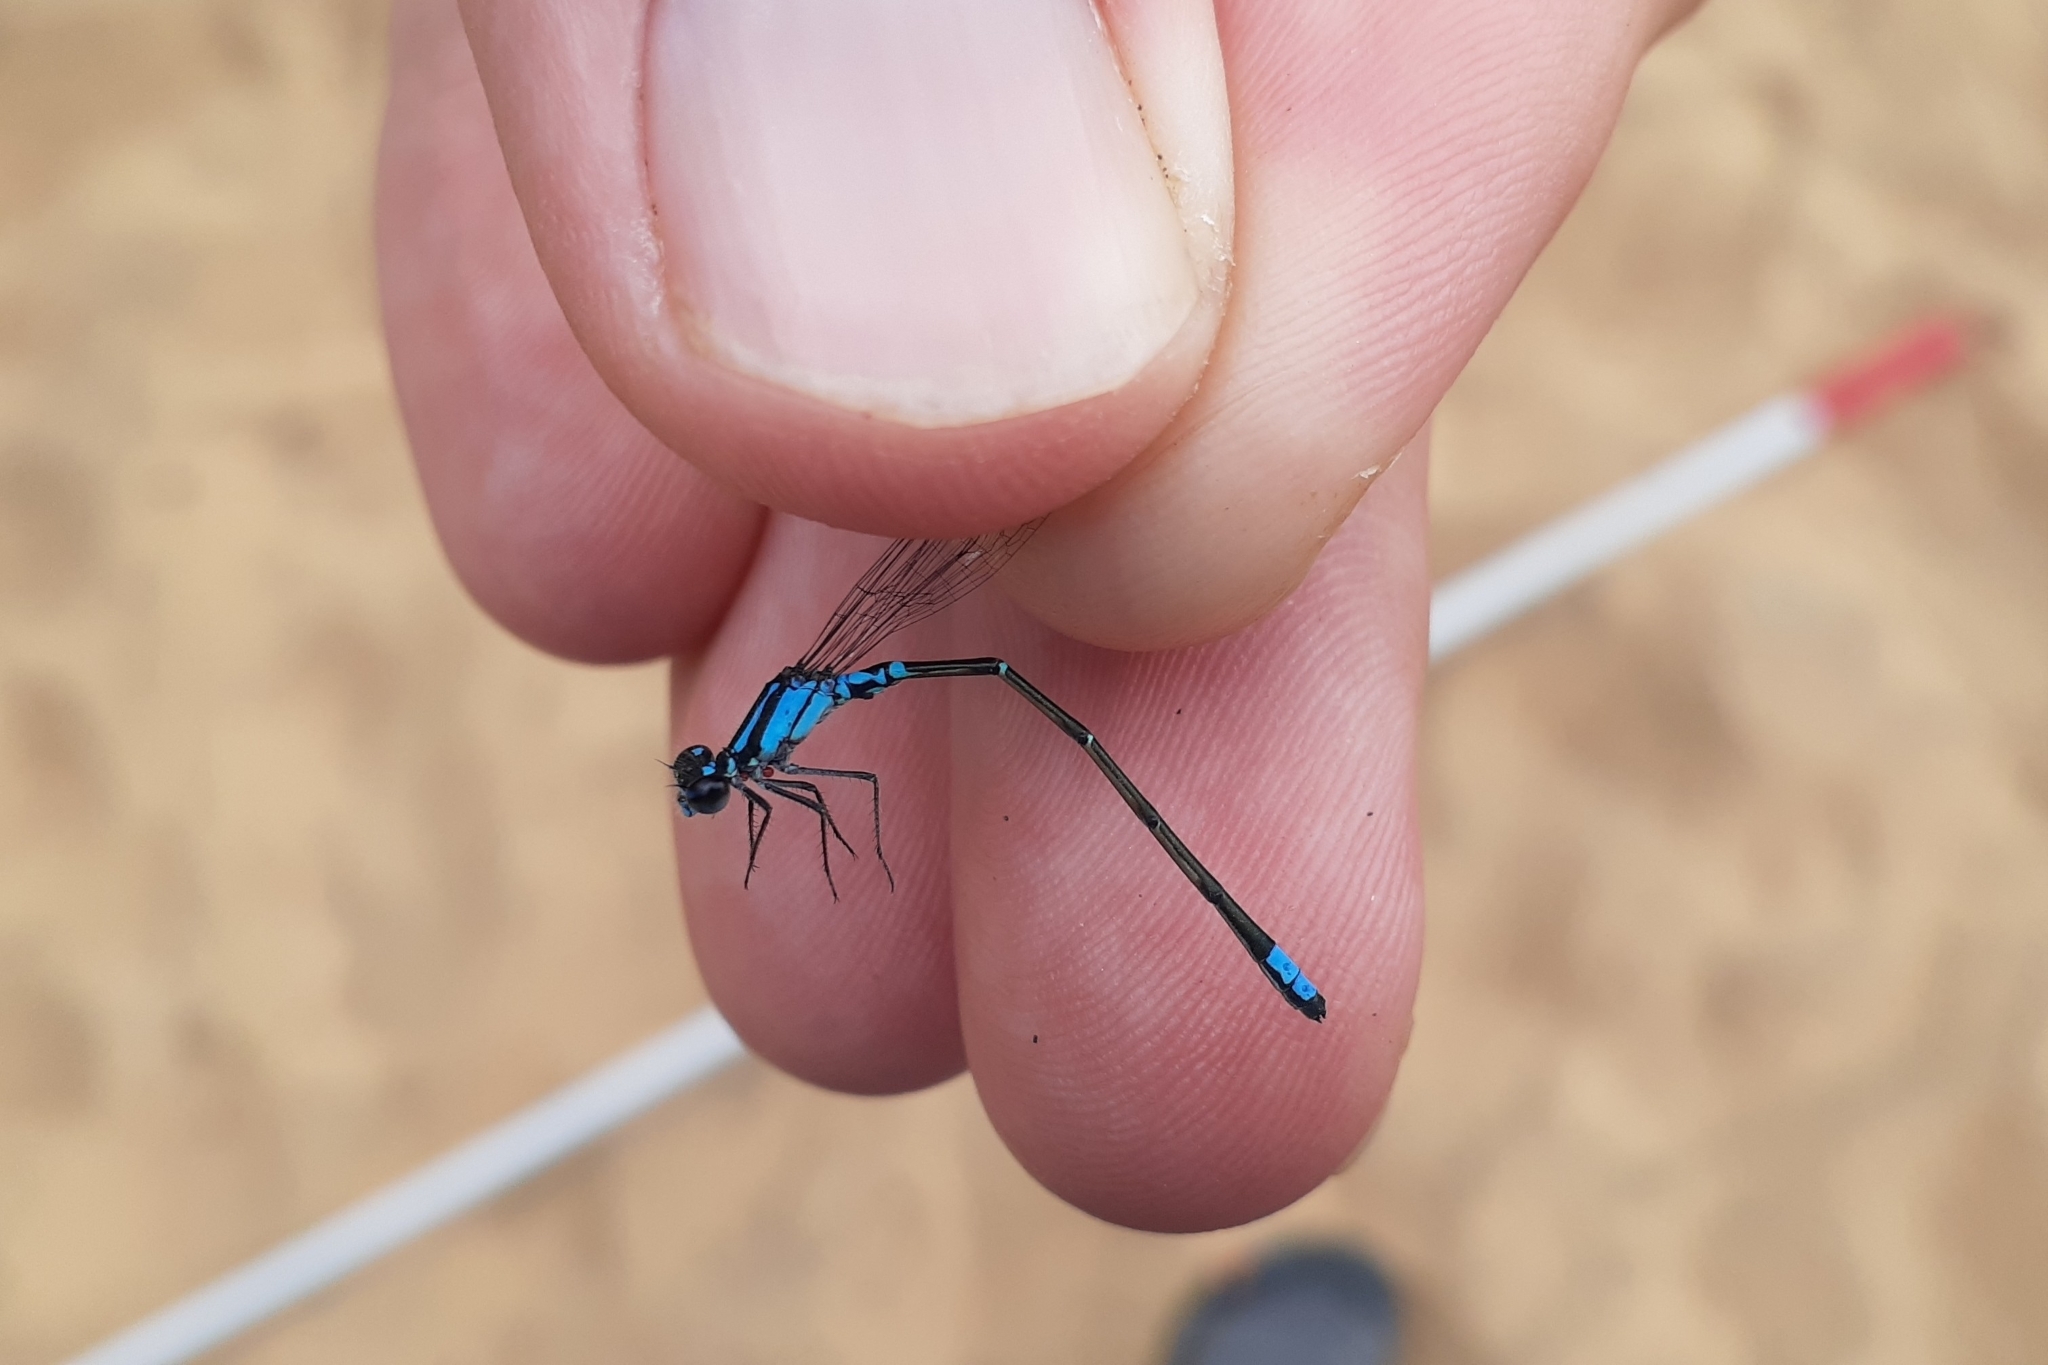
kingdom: Animalia
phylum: Arthropoda
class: Insecta
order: Odonata
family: Coenagrionidae
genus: Enallagma
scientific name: Enallagma geminatum
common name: Skimming bluet
